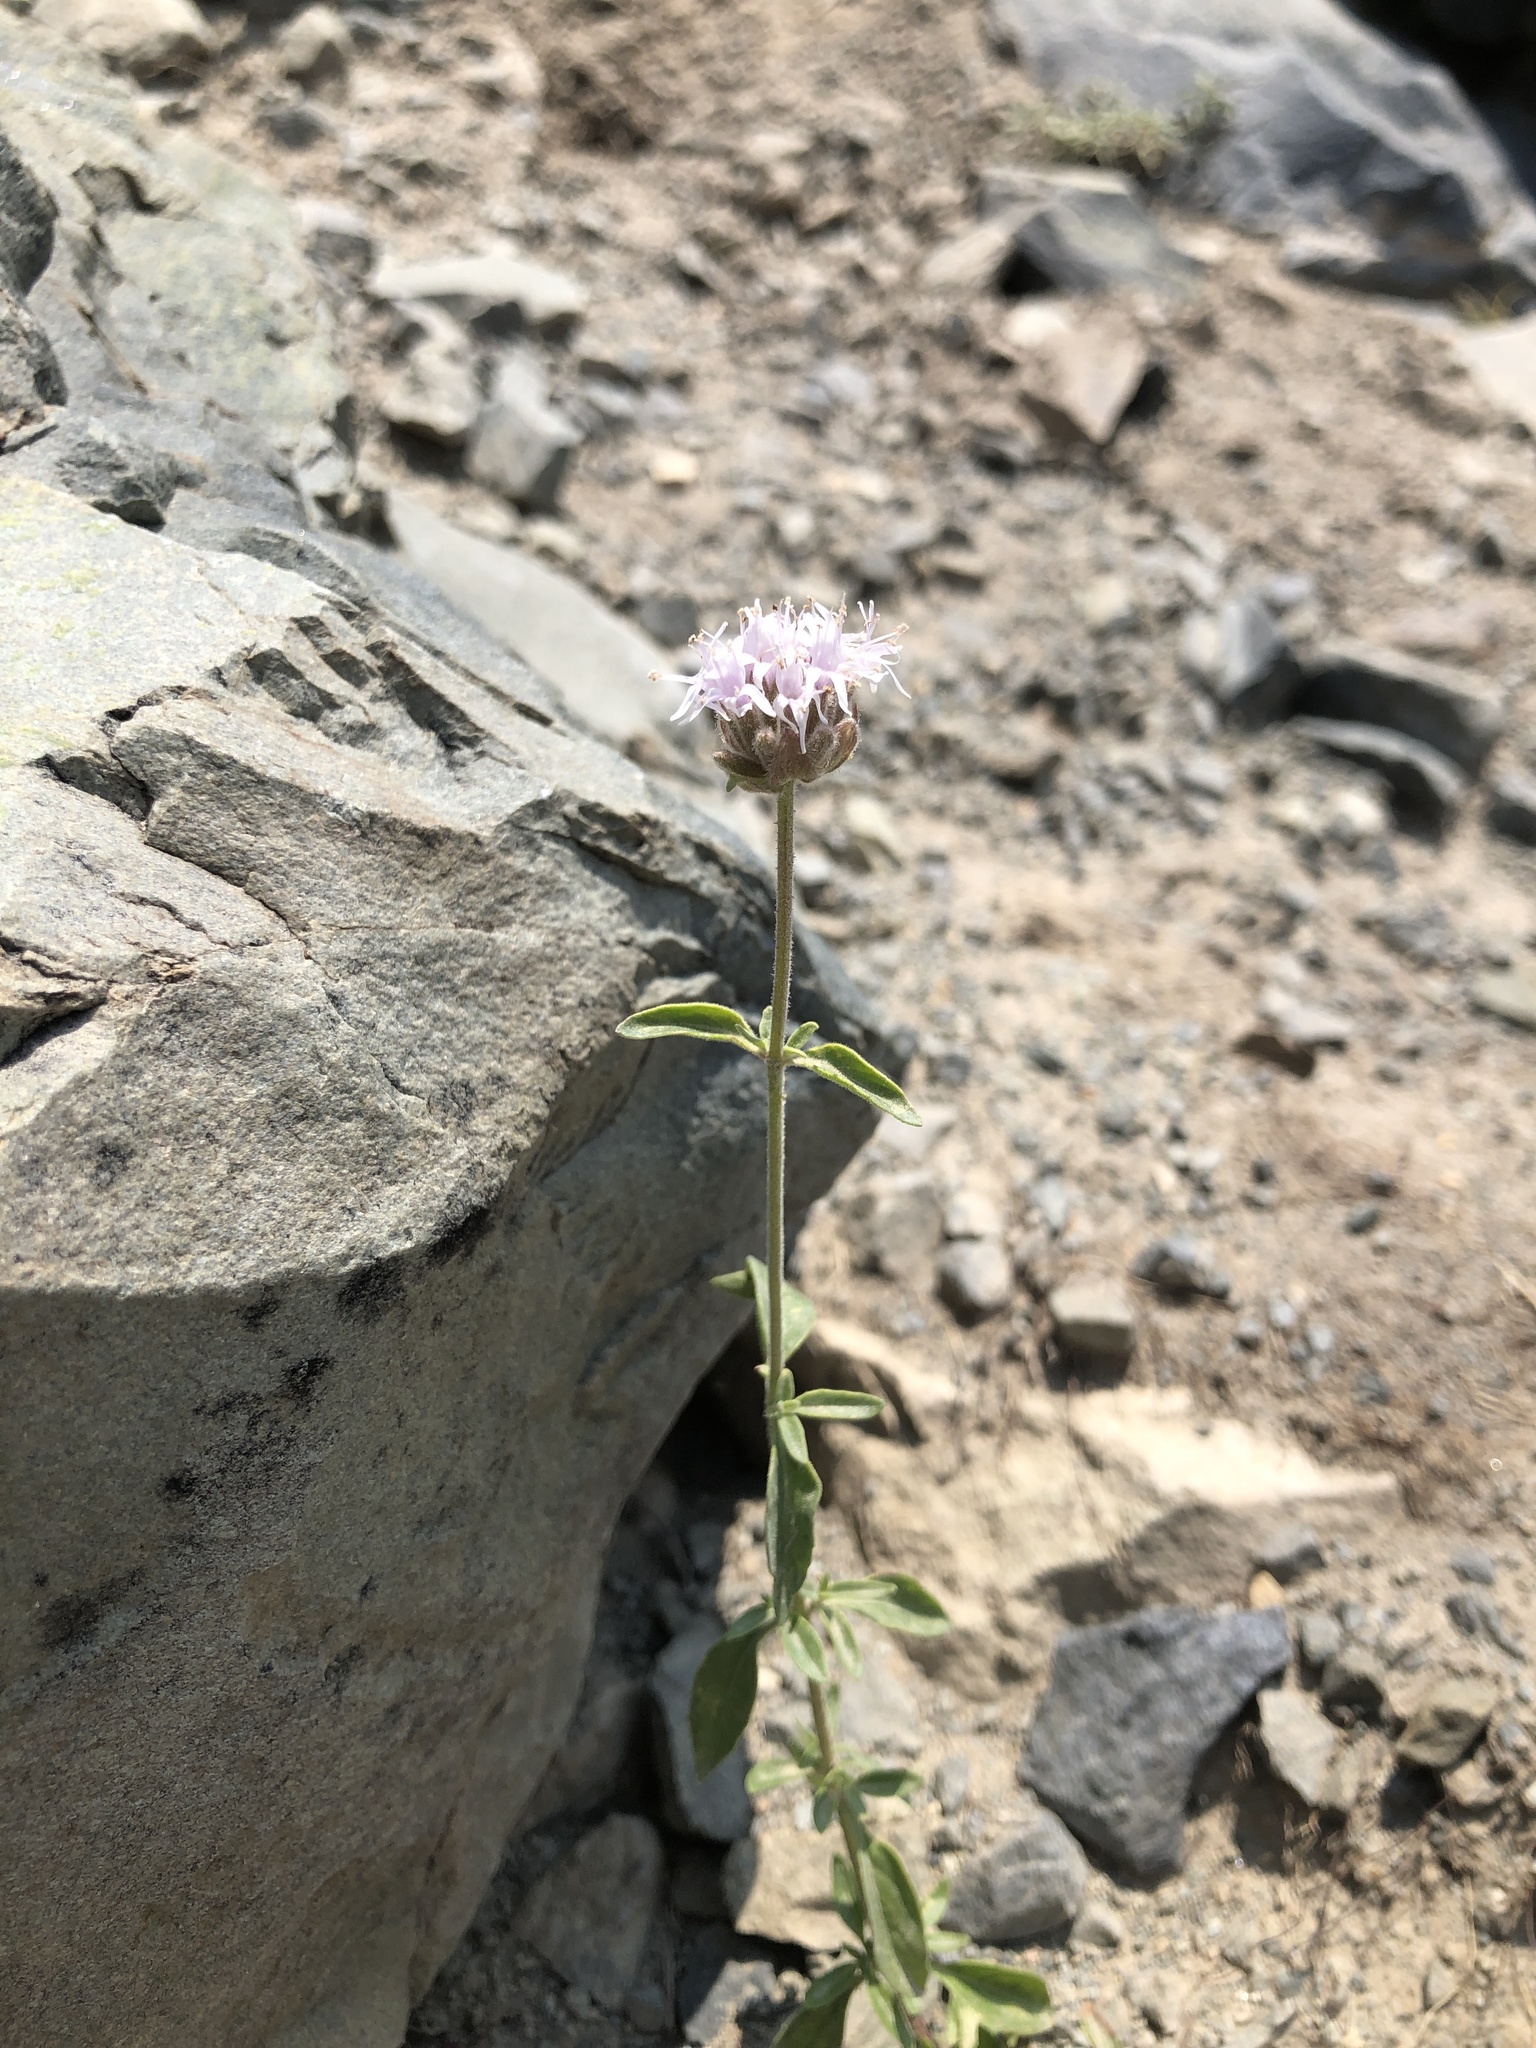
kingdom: Plantae
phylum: Tracheophyta
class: Magnoliopsida
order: Lamiales
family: Lamiaceae
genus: Monardella
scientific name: Monardella odoratissima
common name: Pacific monardella
